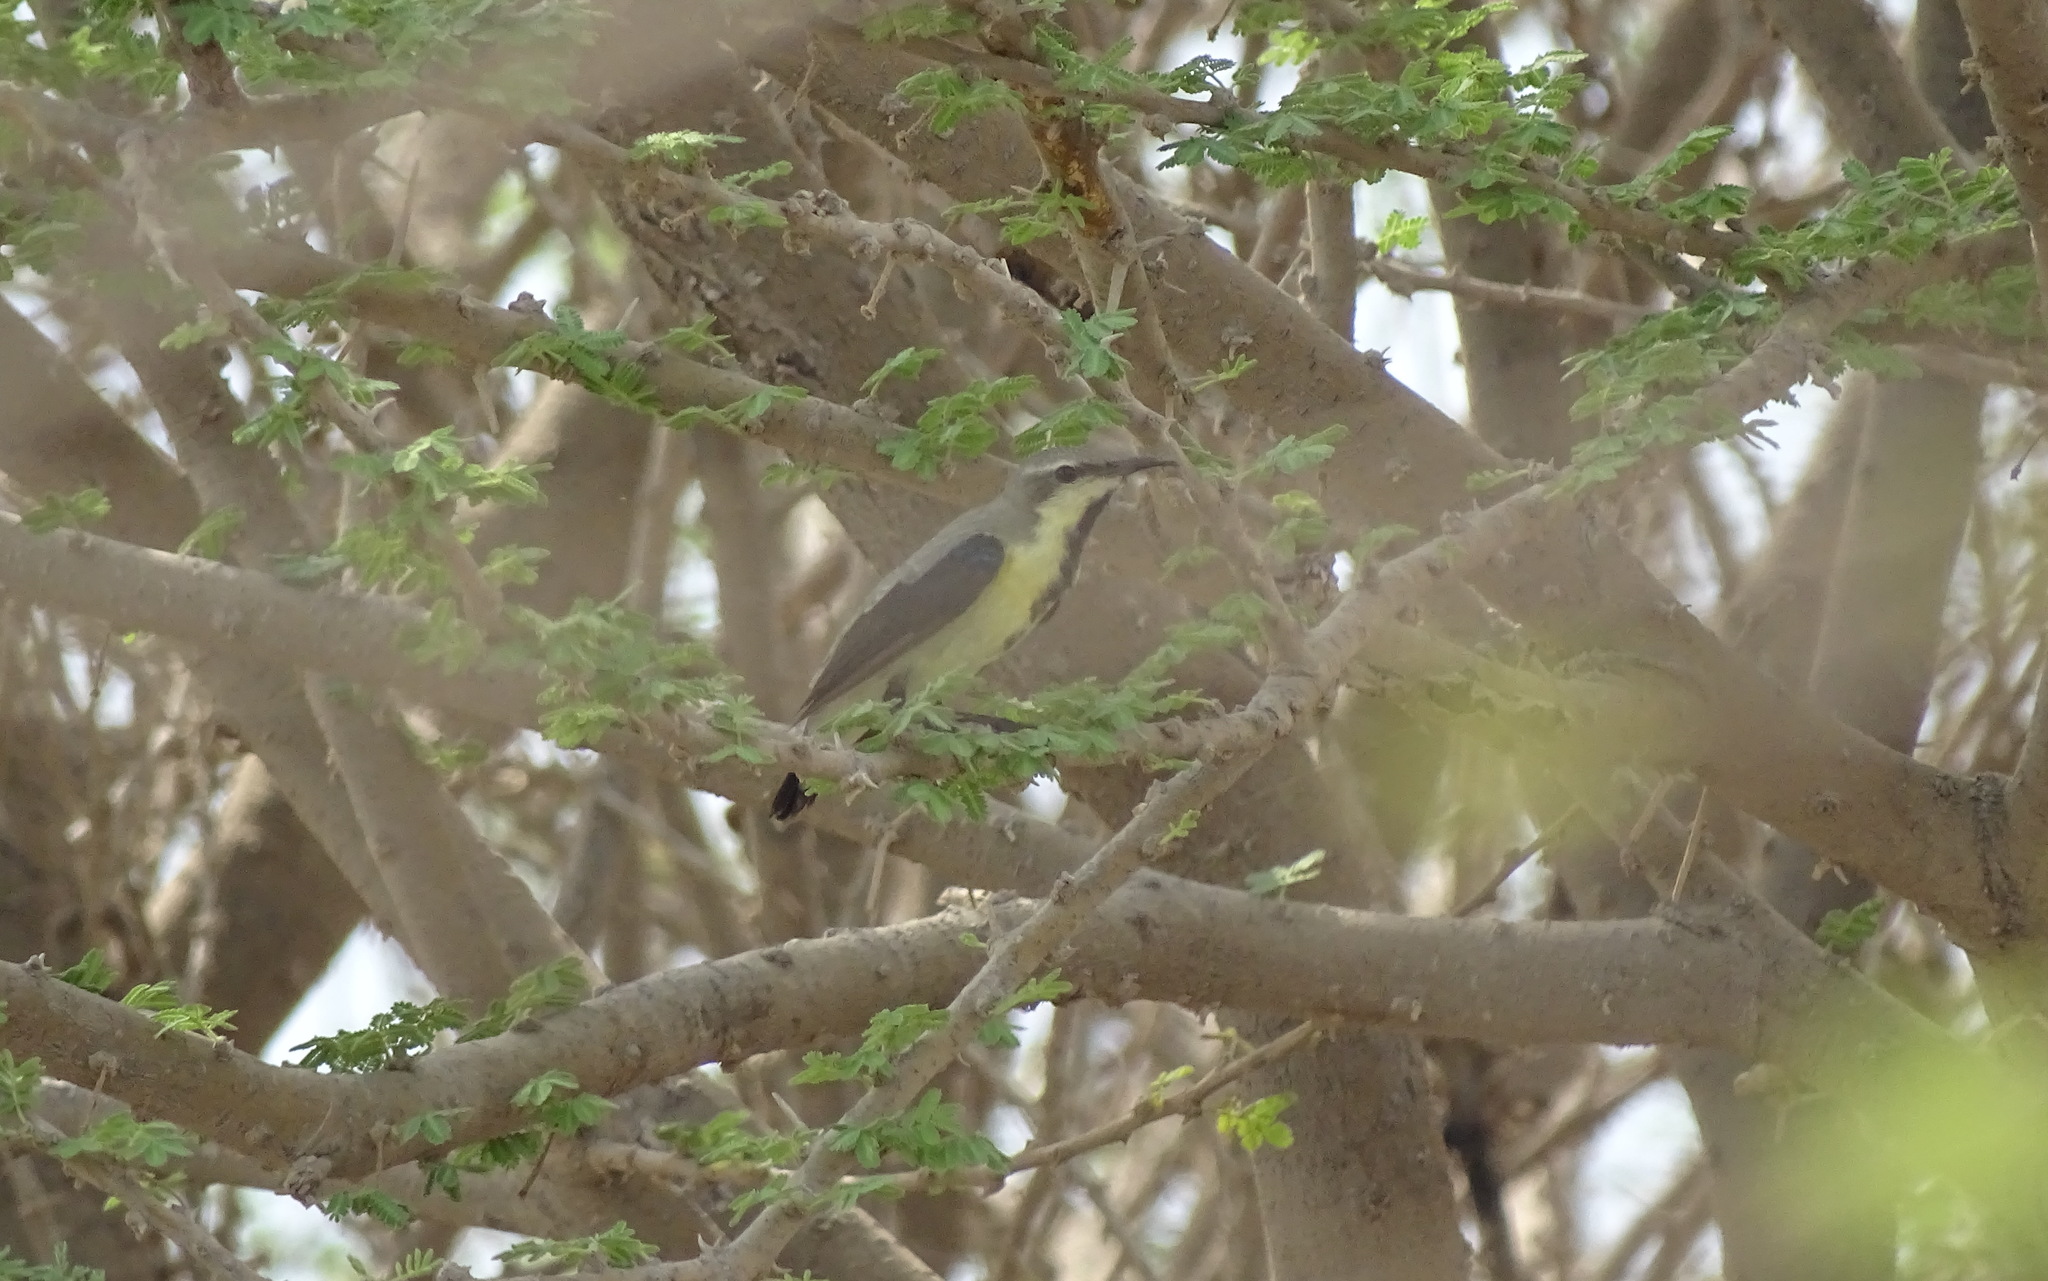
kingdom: Animalia
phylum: Chordata
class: Aves
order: Passeriformes
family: Nectariniidae
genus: Cinnyris
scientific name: Cinnyris asiaticus
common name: Purple sunbird
